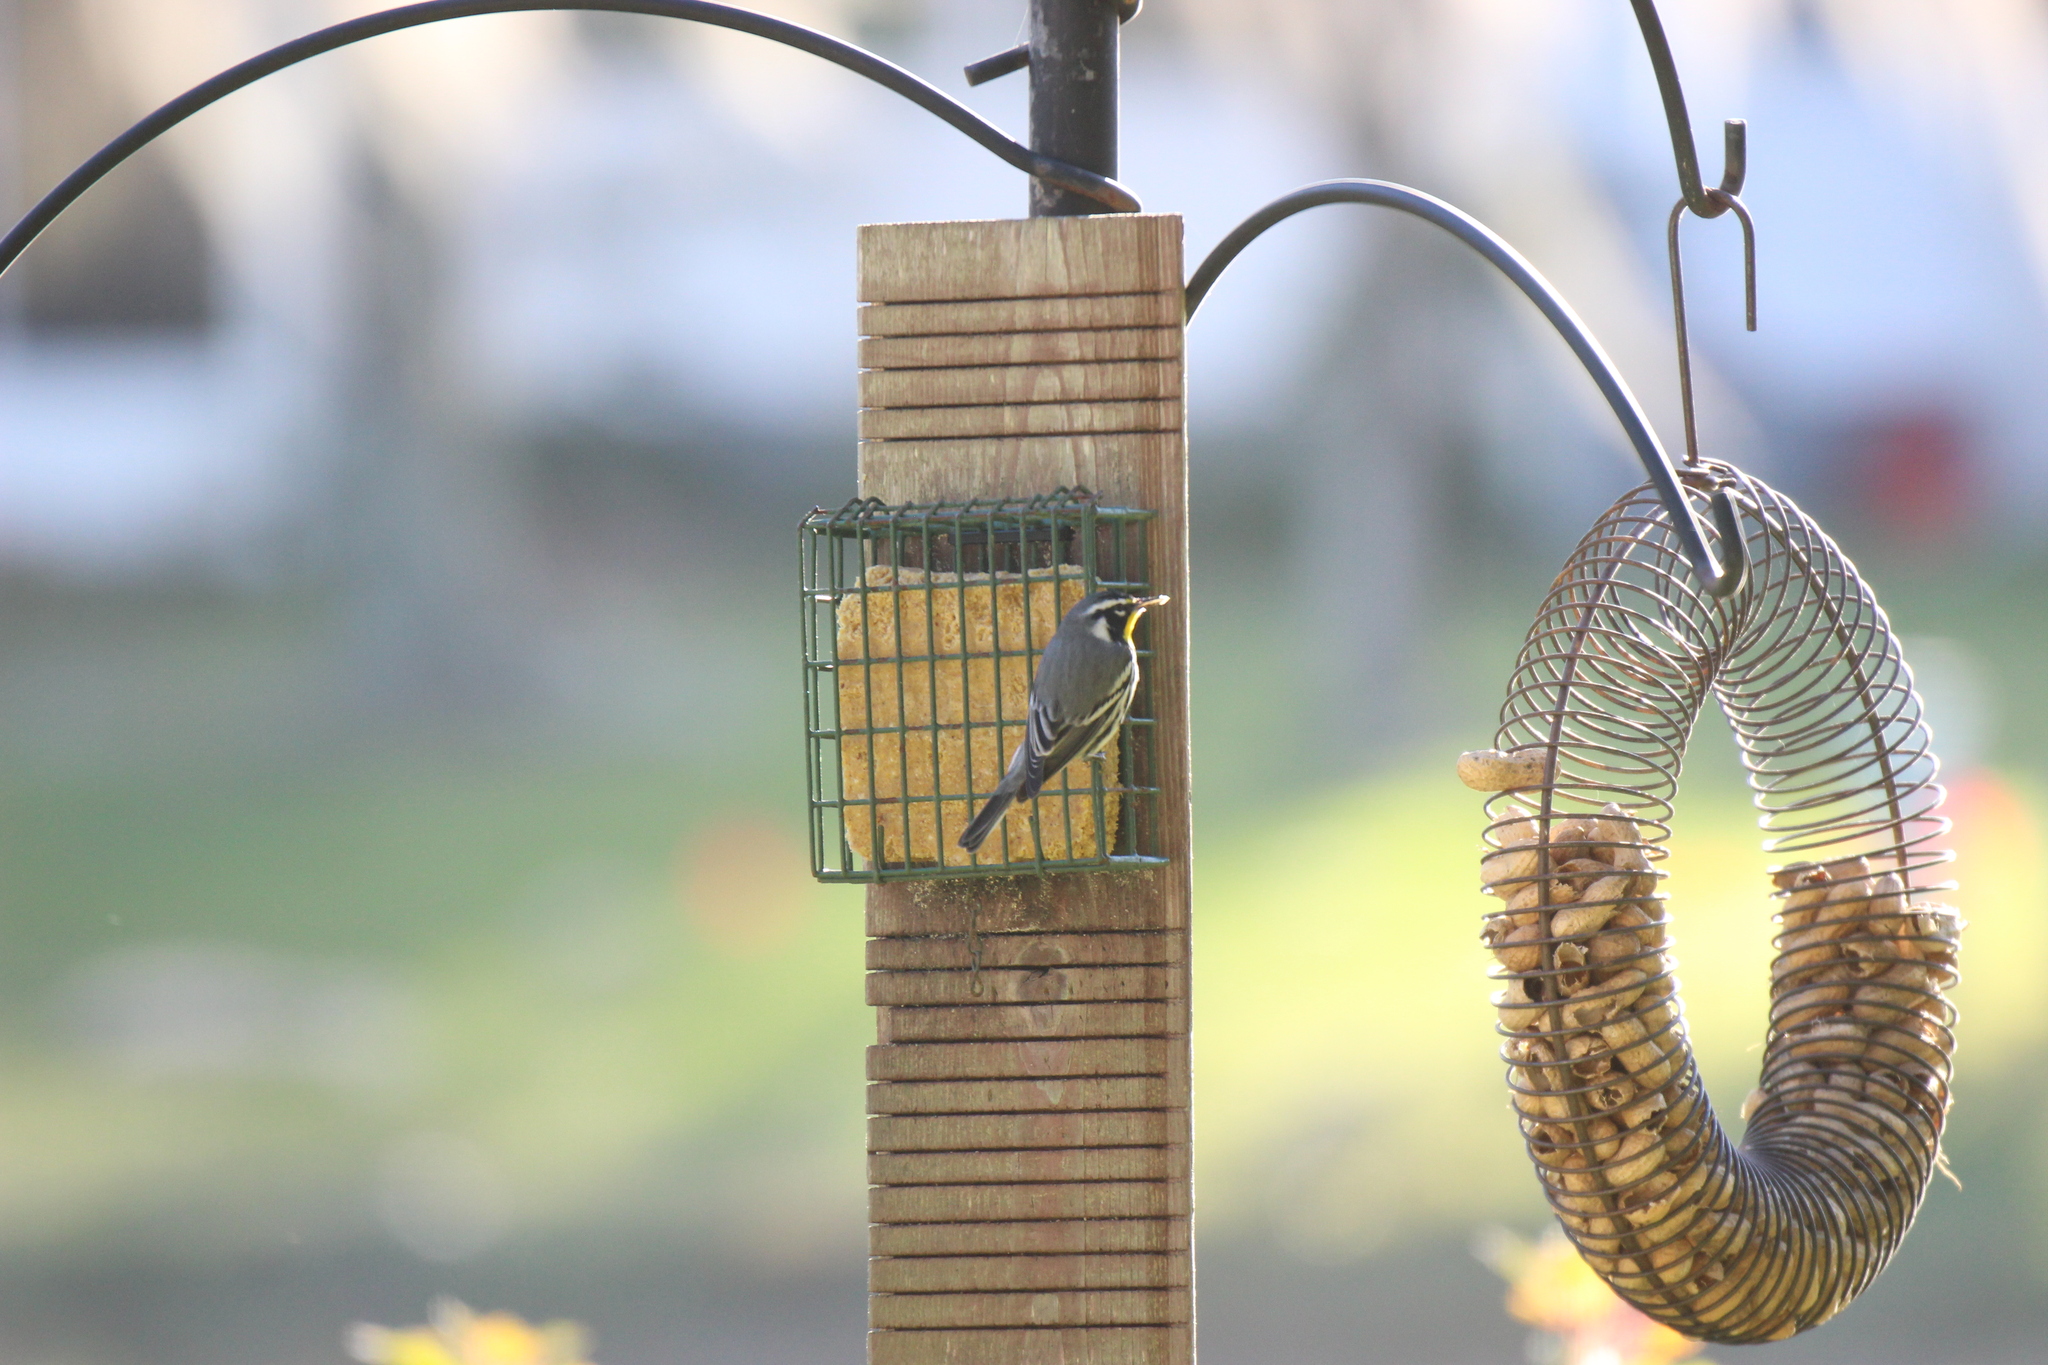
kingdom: Animalia
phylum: Chordata
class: Aves
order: Passeriformes
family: Parulidae
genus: Setophaga
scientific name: Setophaga dominica
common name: Yellow-throated warbler
